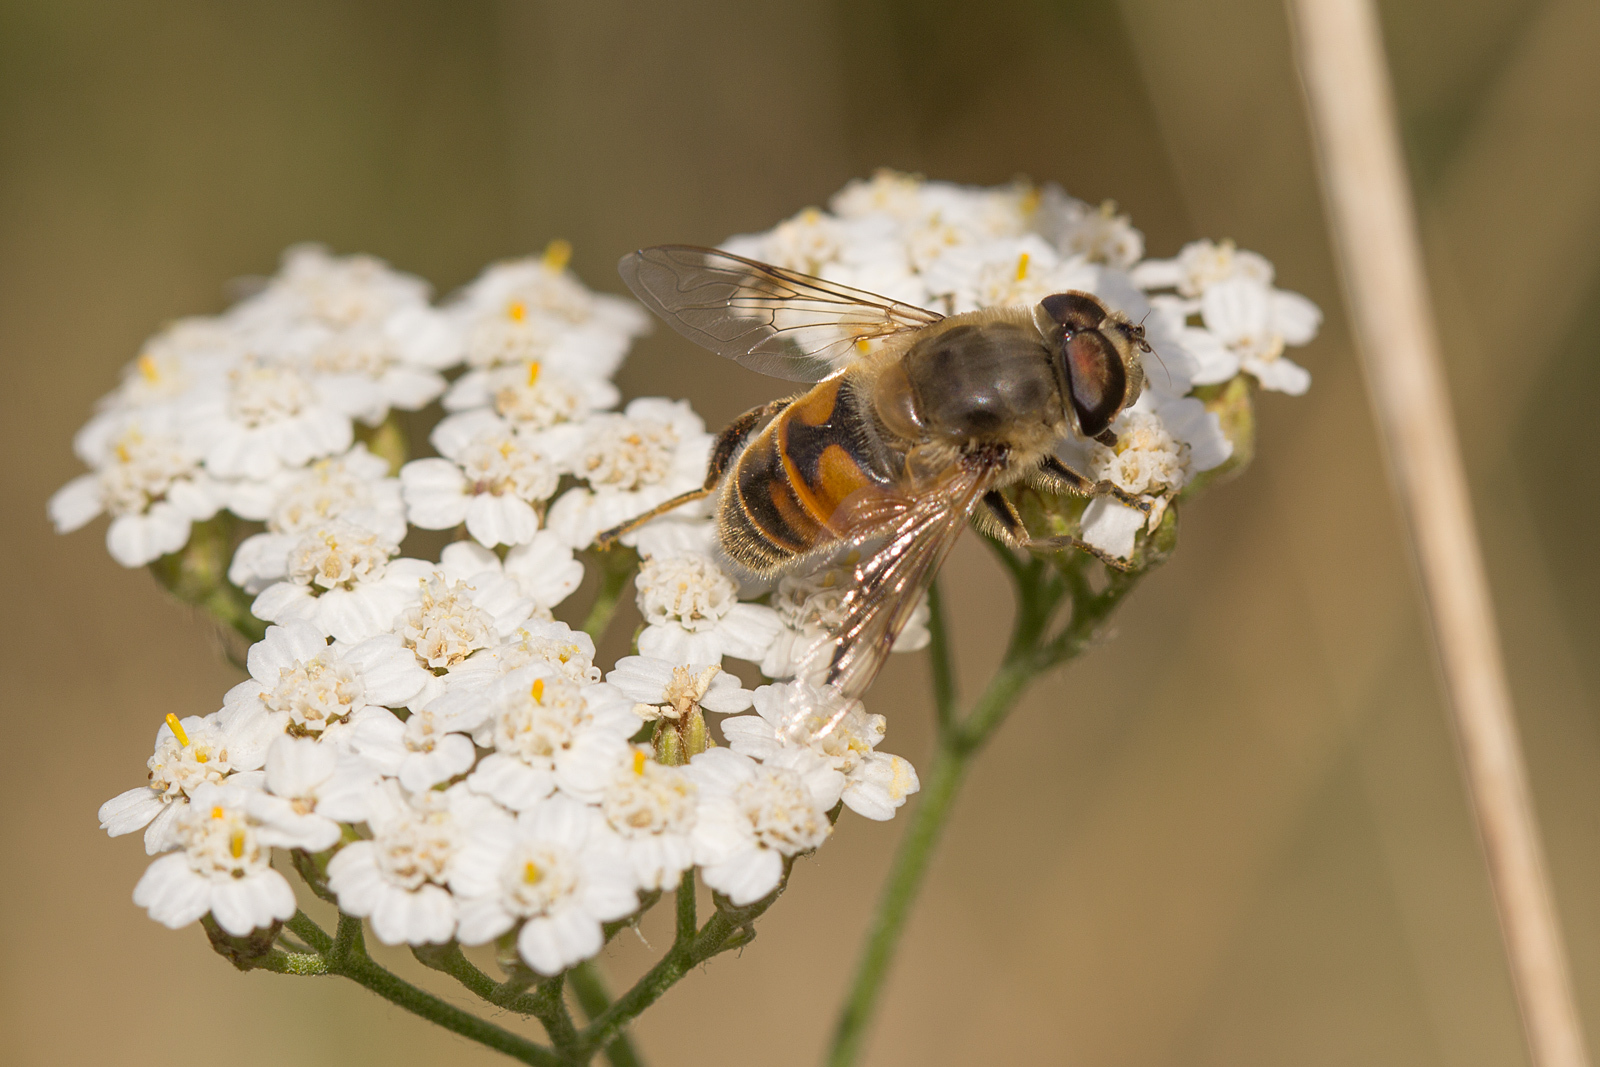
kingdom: Animalia
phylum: Arthropoda
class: Insecta
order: Diptera
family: Syrphidae
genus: Eristalis
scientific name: Eristalis tenax
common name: Drone fly
